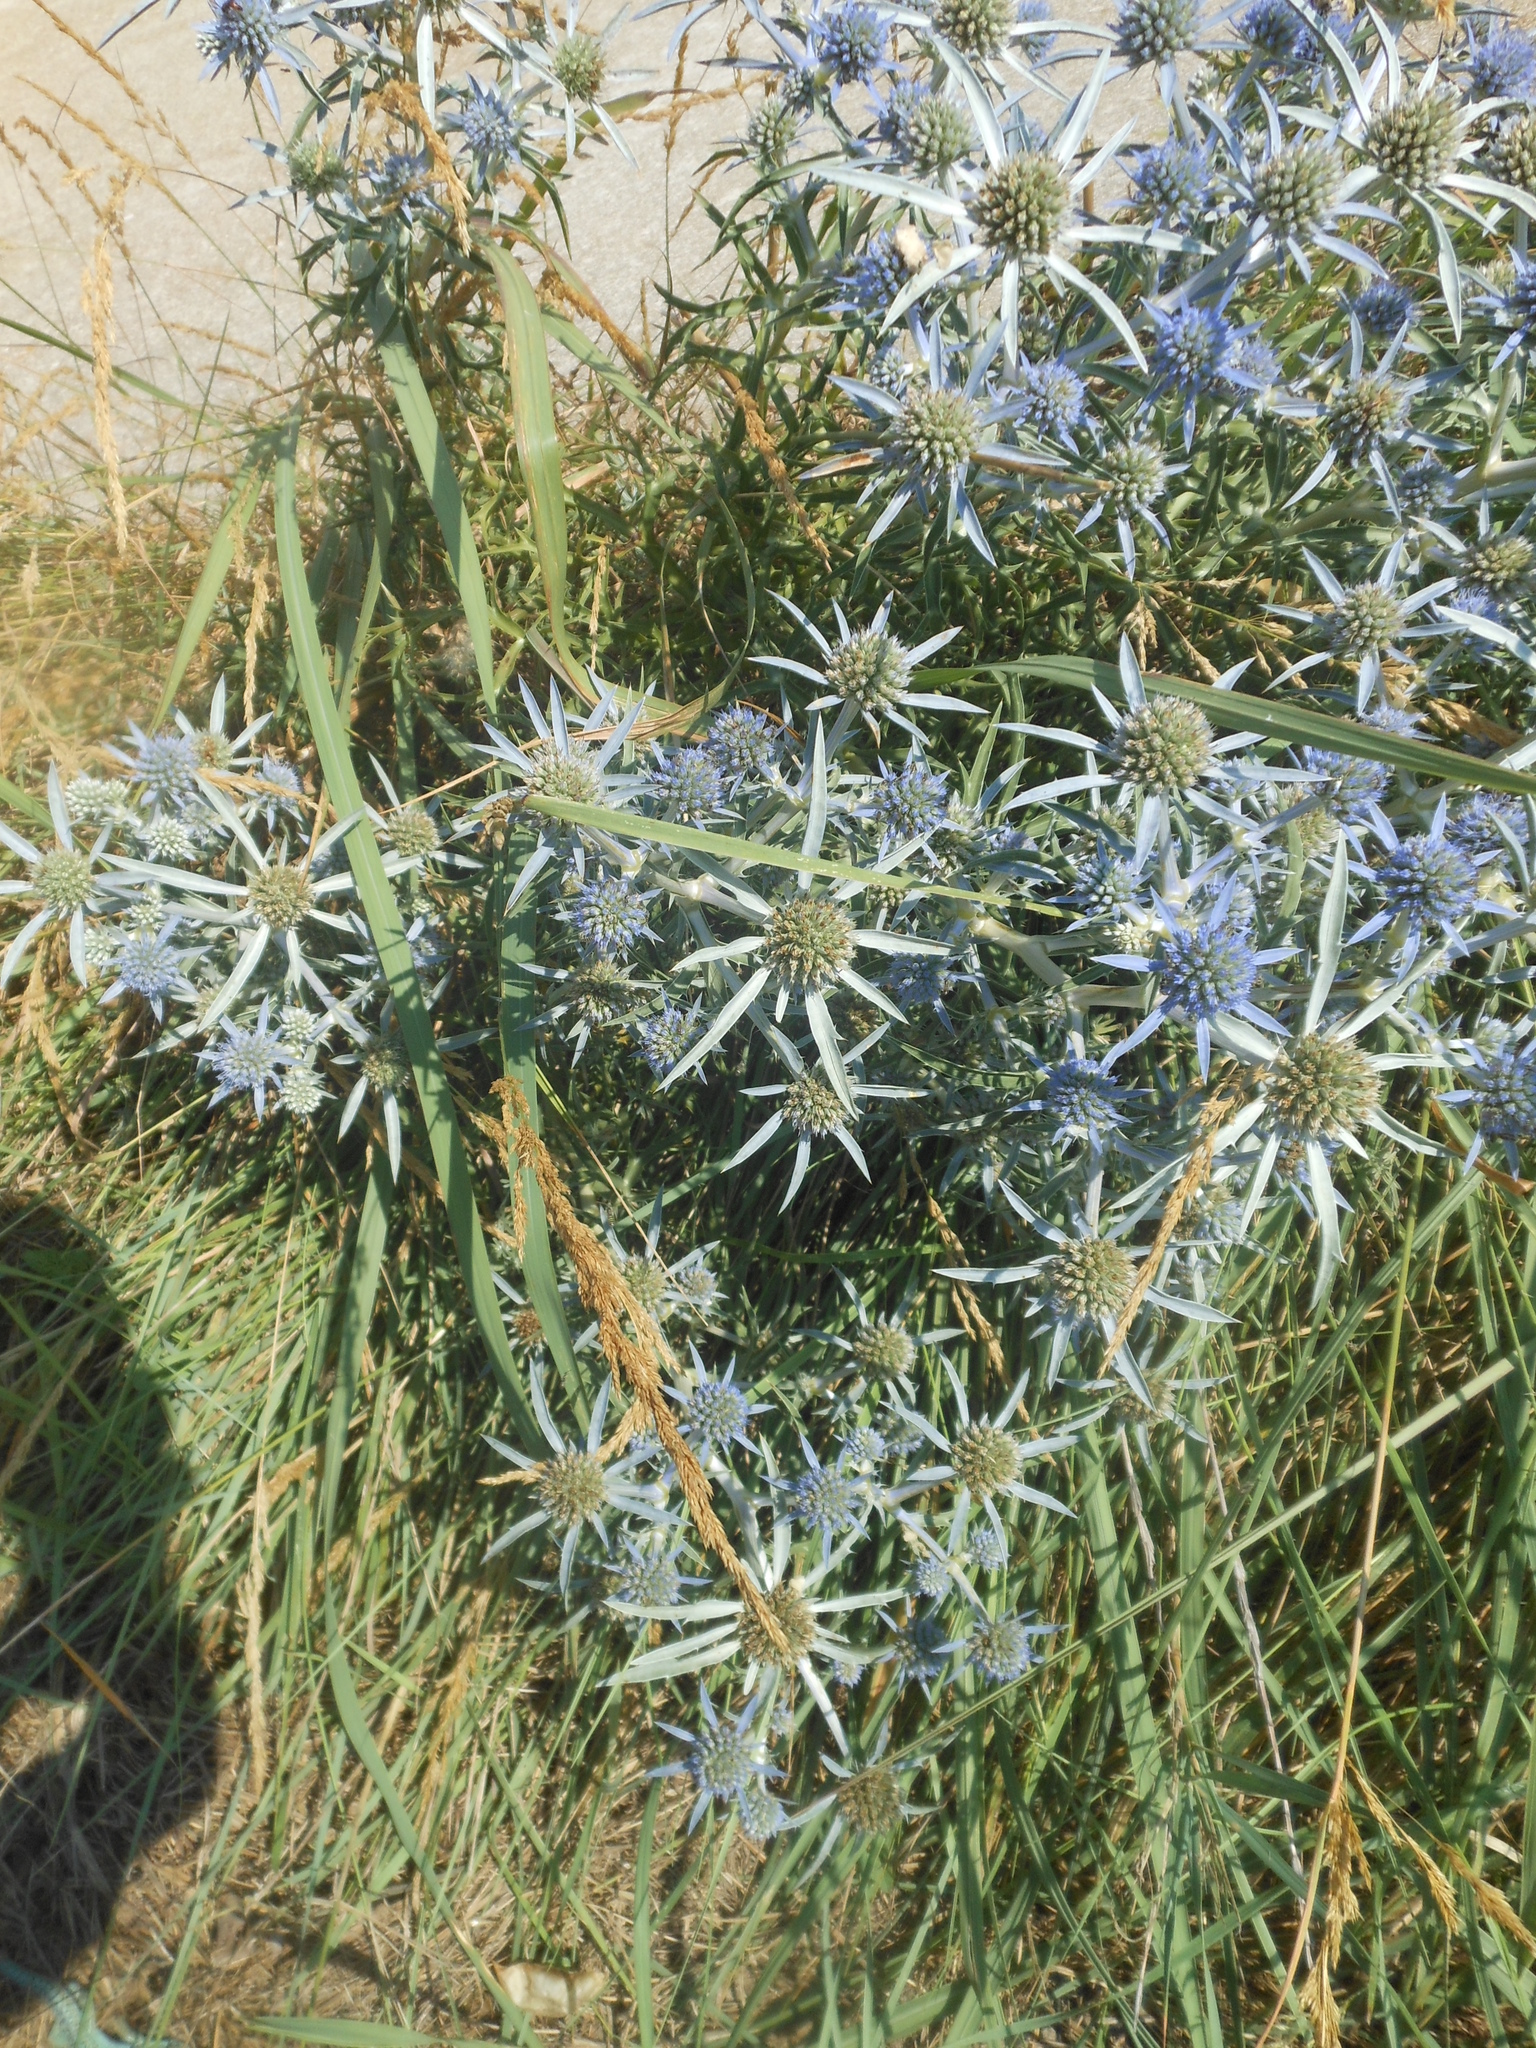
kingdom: Plantae
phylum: Tracheophyta
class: Magnoliopsida
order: Apiales
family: Apiaceae
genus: Eryngium
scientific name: Eryngium amethystinum
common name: Amethyst eryngo
